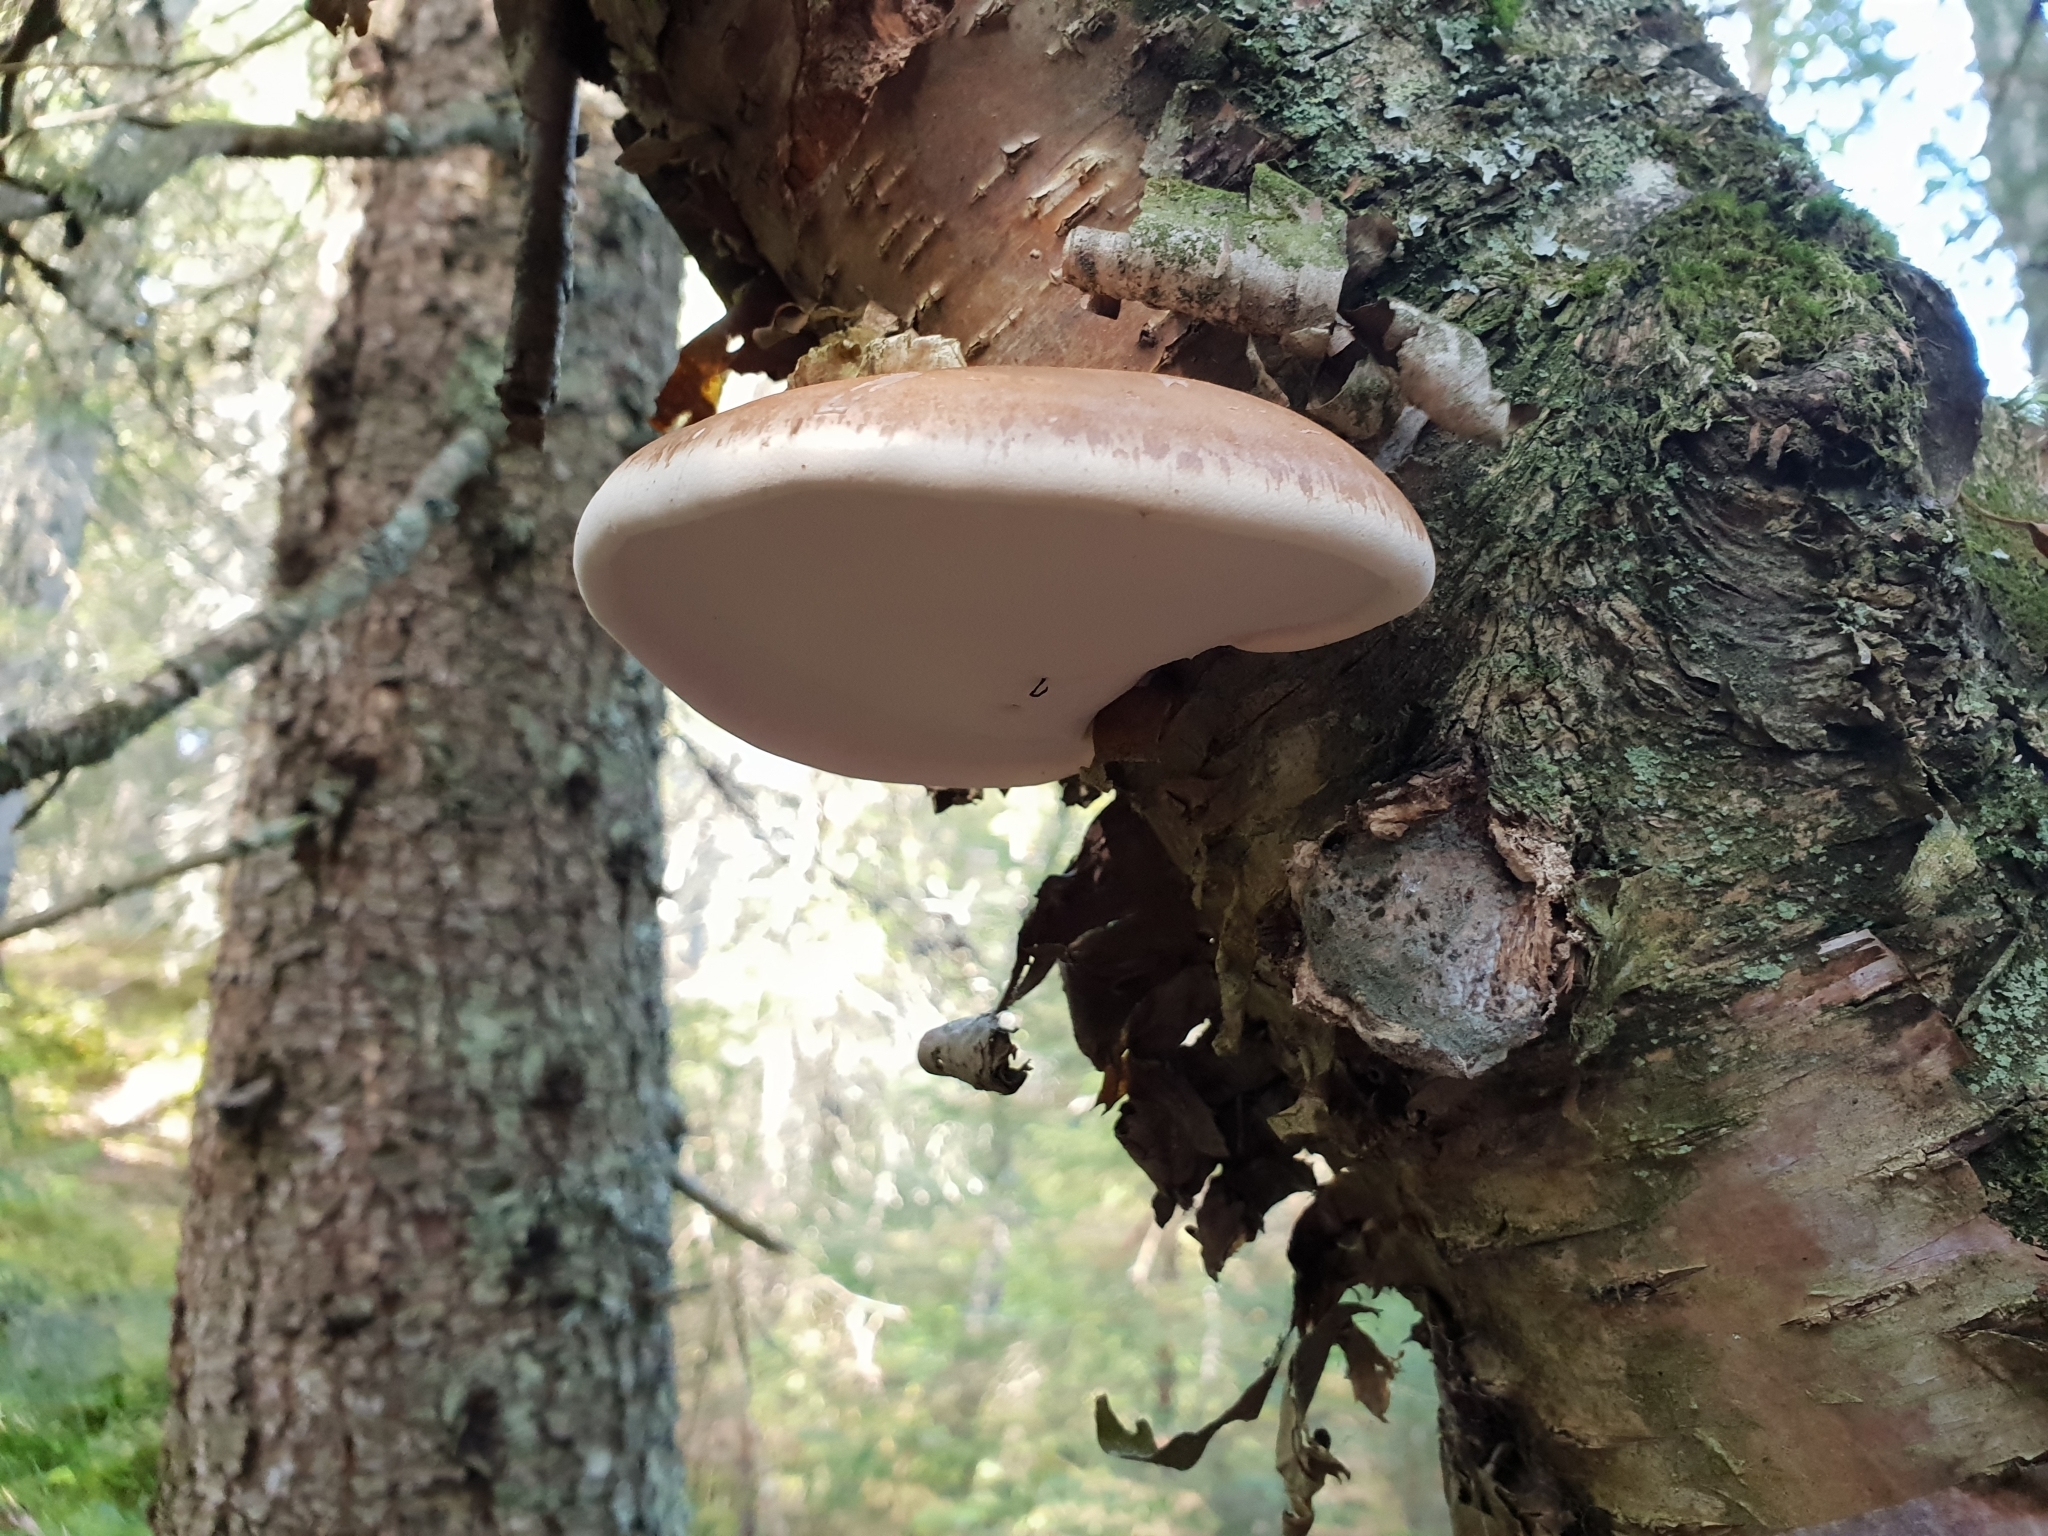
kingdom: Fungi
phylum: Basidiomycota
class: Agaricomycetes
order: Polyporales
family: Fomitopsidaceae
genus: Fomitopsis
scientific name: Fomitopsis betulina
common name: Birch polypore
